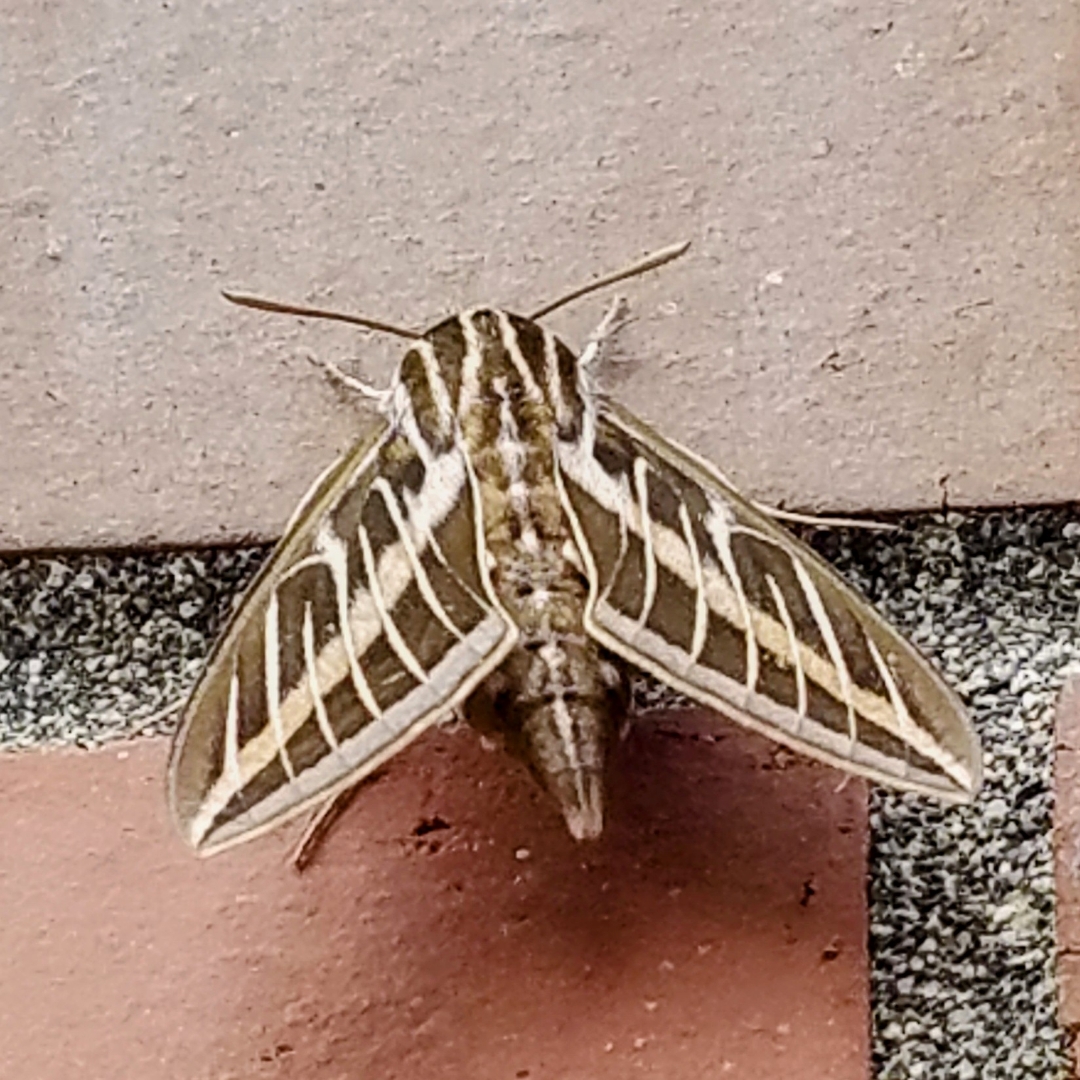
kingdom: Animalia
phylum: Arthropoda
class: Insecta
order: Lepidoptera
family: Sphingidae
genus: Hyles
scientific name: Hyles lineata
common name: White-lined sphinx
